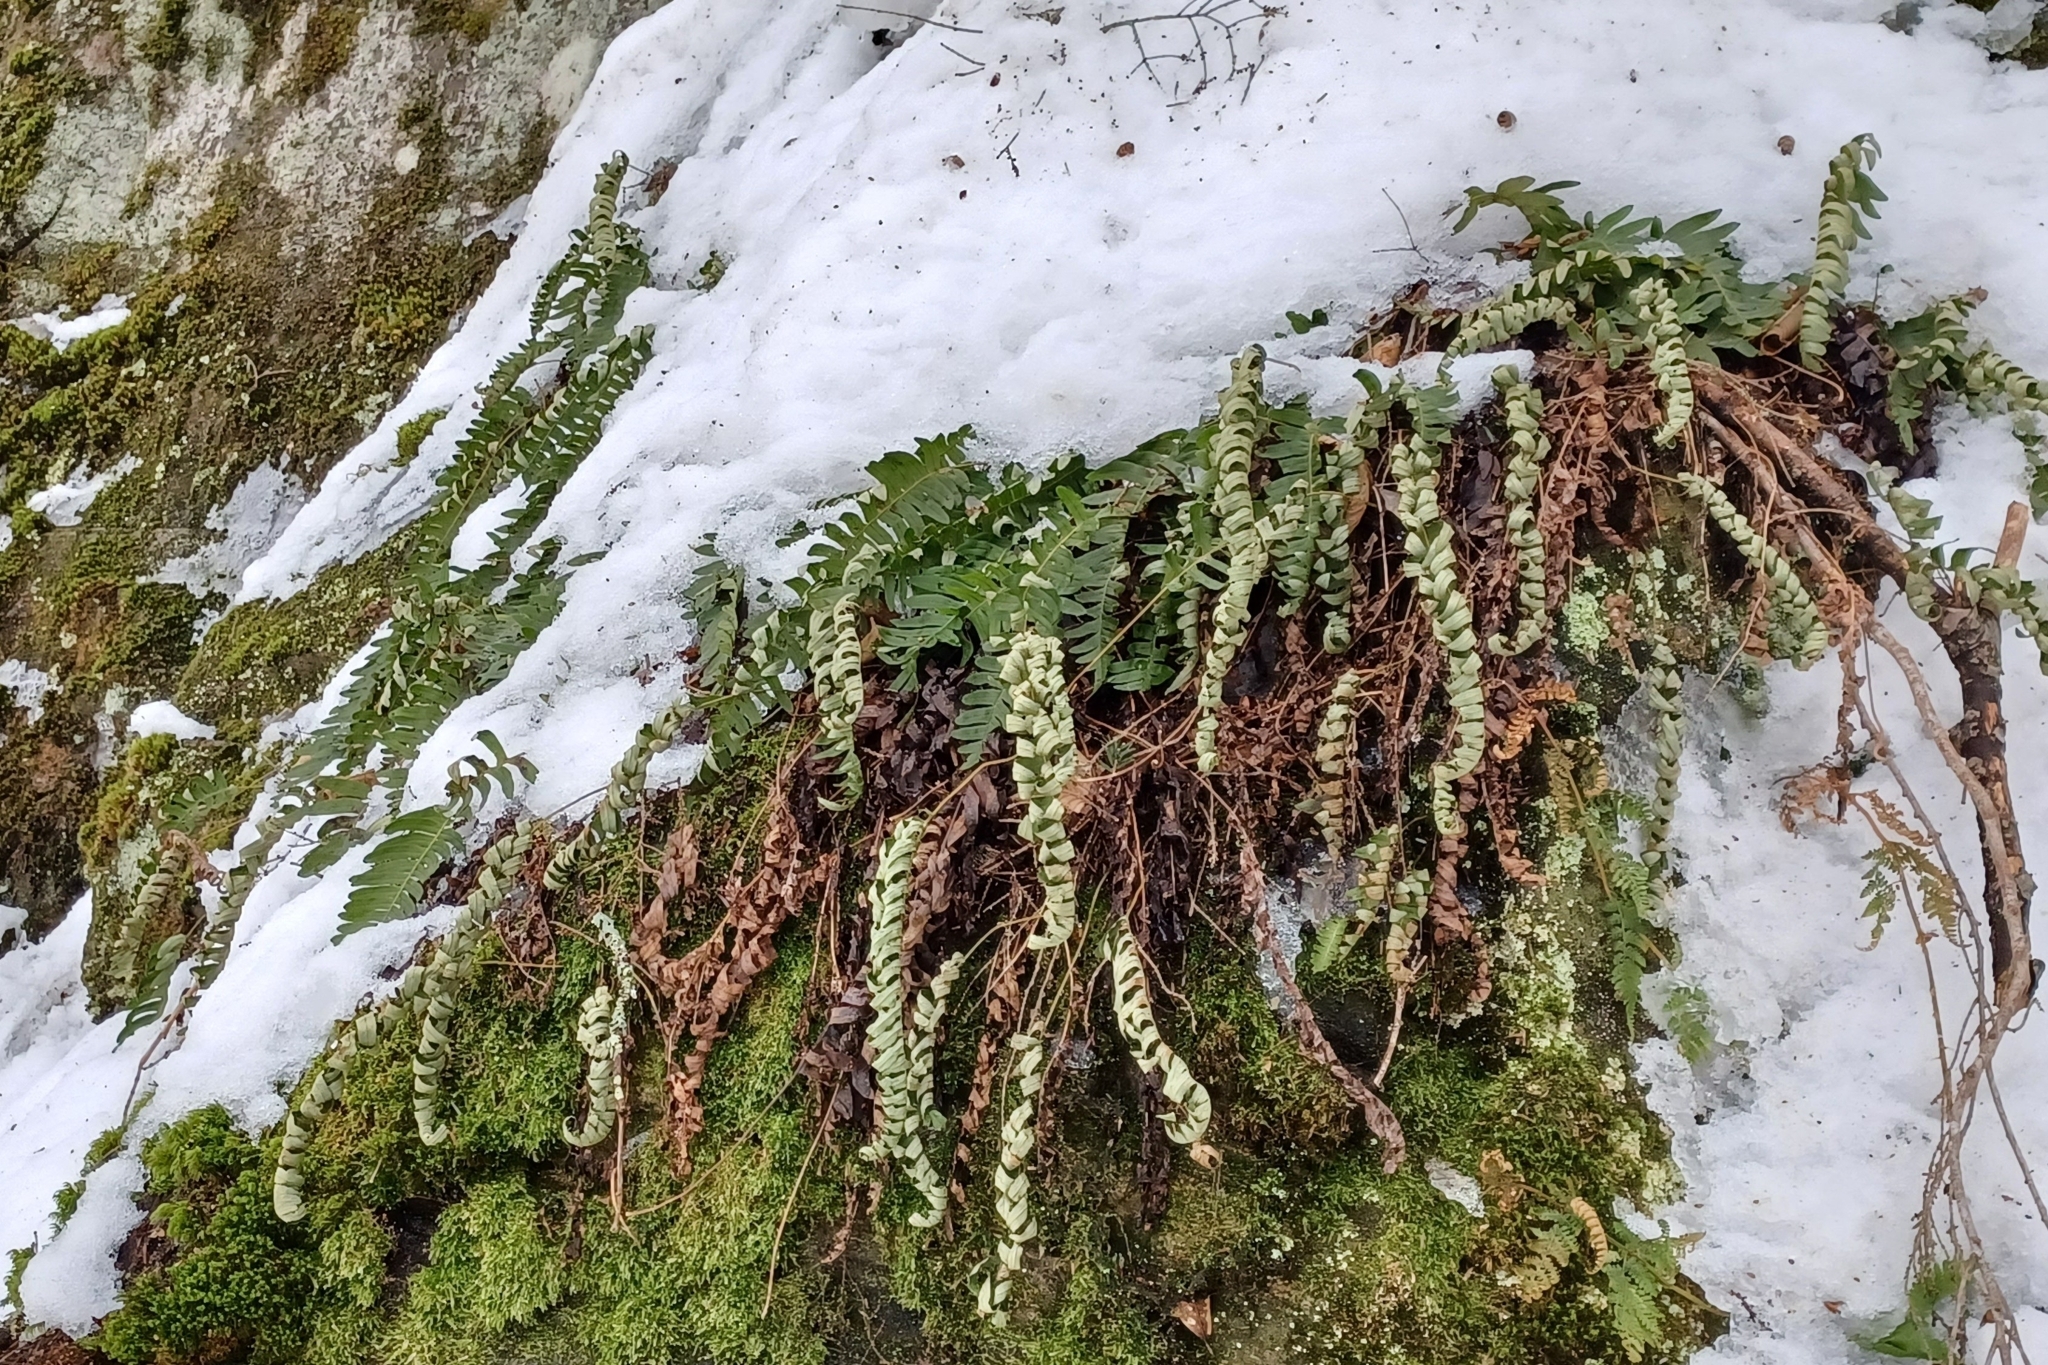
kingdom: Plantae
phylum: Tracheophyta
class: Polypodiopsida
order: Polypodiales
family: Polypodiaceae
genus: Polypodium
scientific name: Polypodium virginianum
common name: American wall fern
